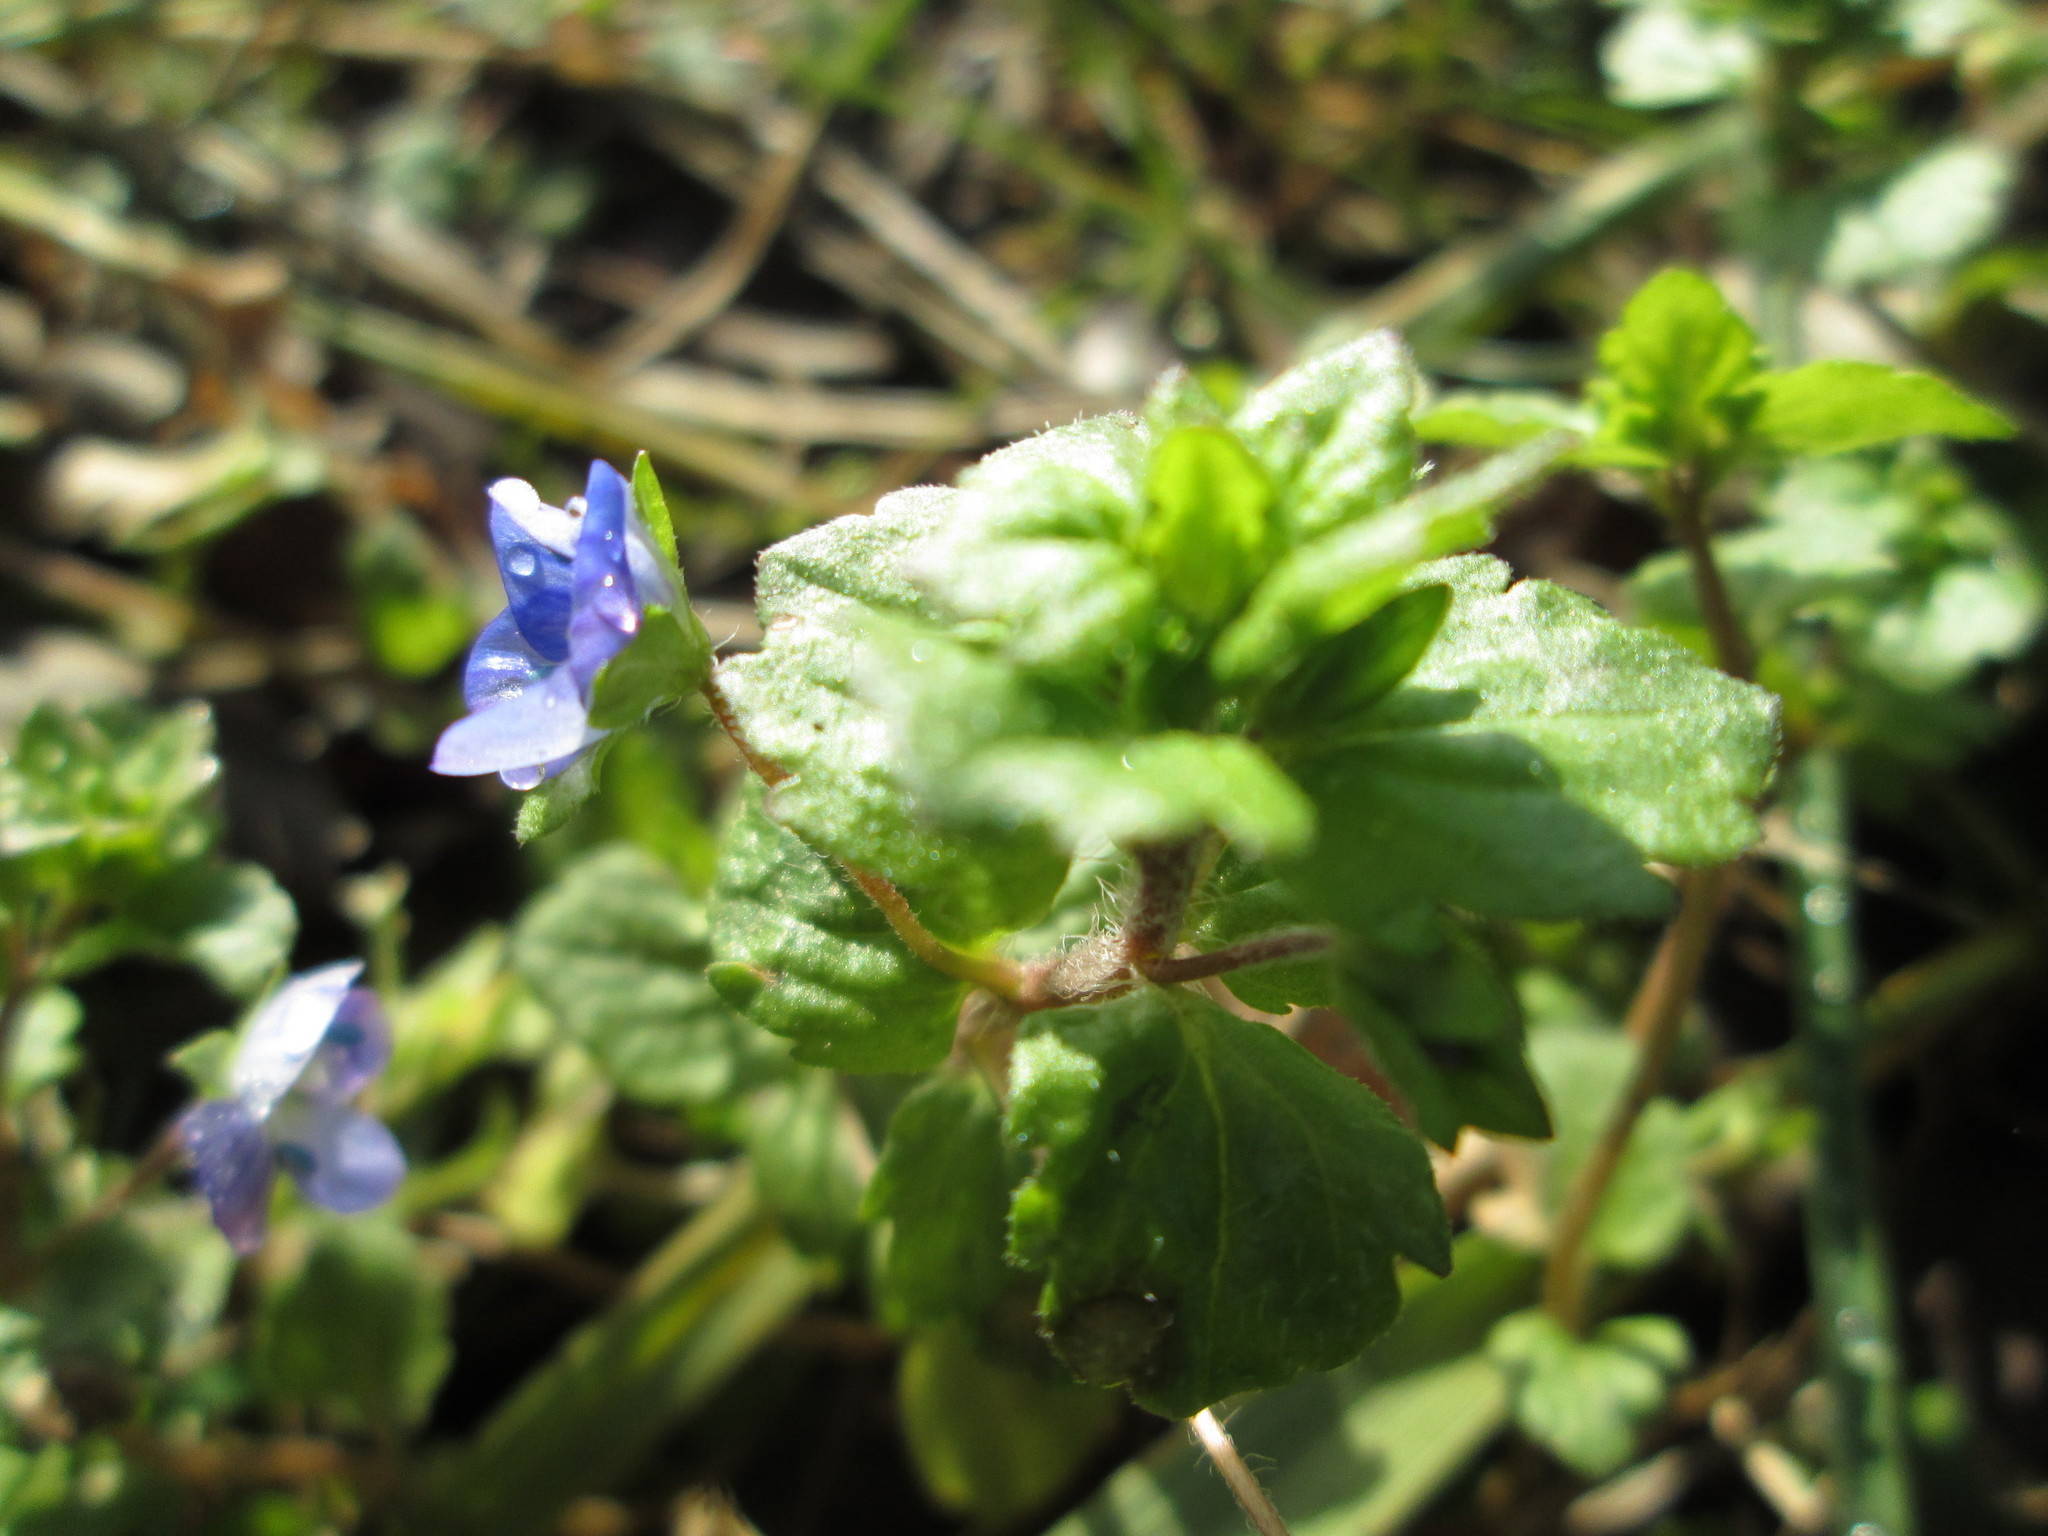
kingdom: Plantae
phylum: Tracheophyta
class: Magnoliopsida
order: Lamiales
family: Plantaginaceae
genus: Veronica
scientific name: Veronica persica
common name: Common field-speedwell
